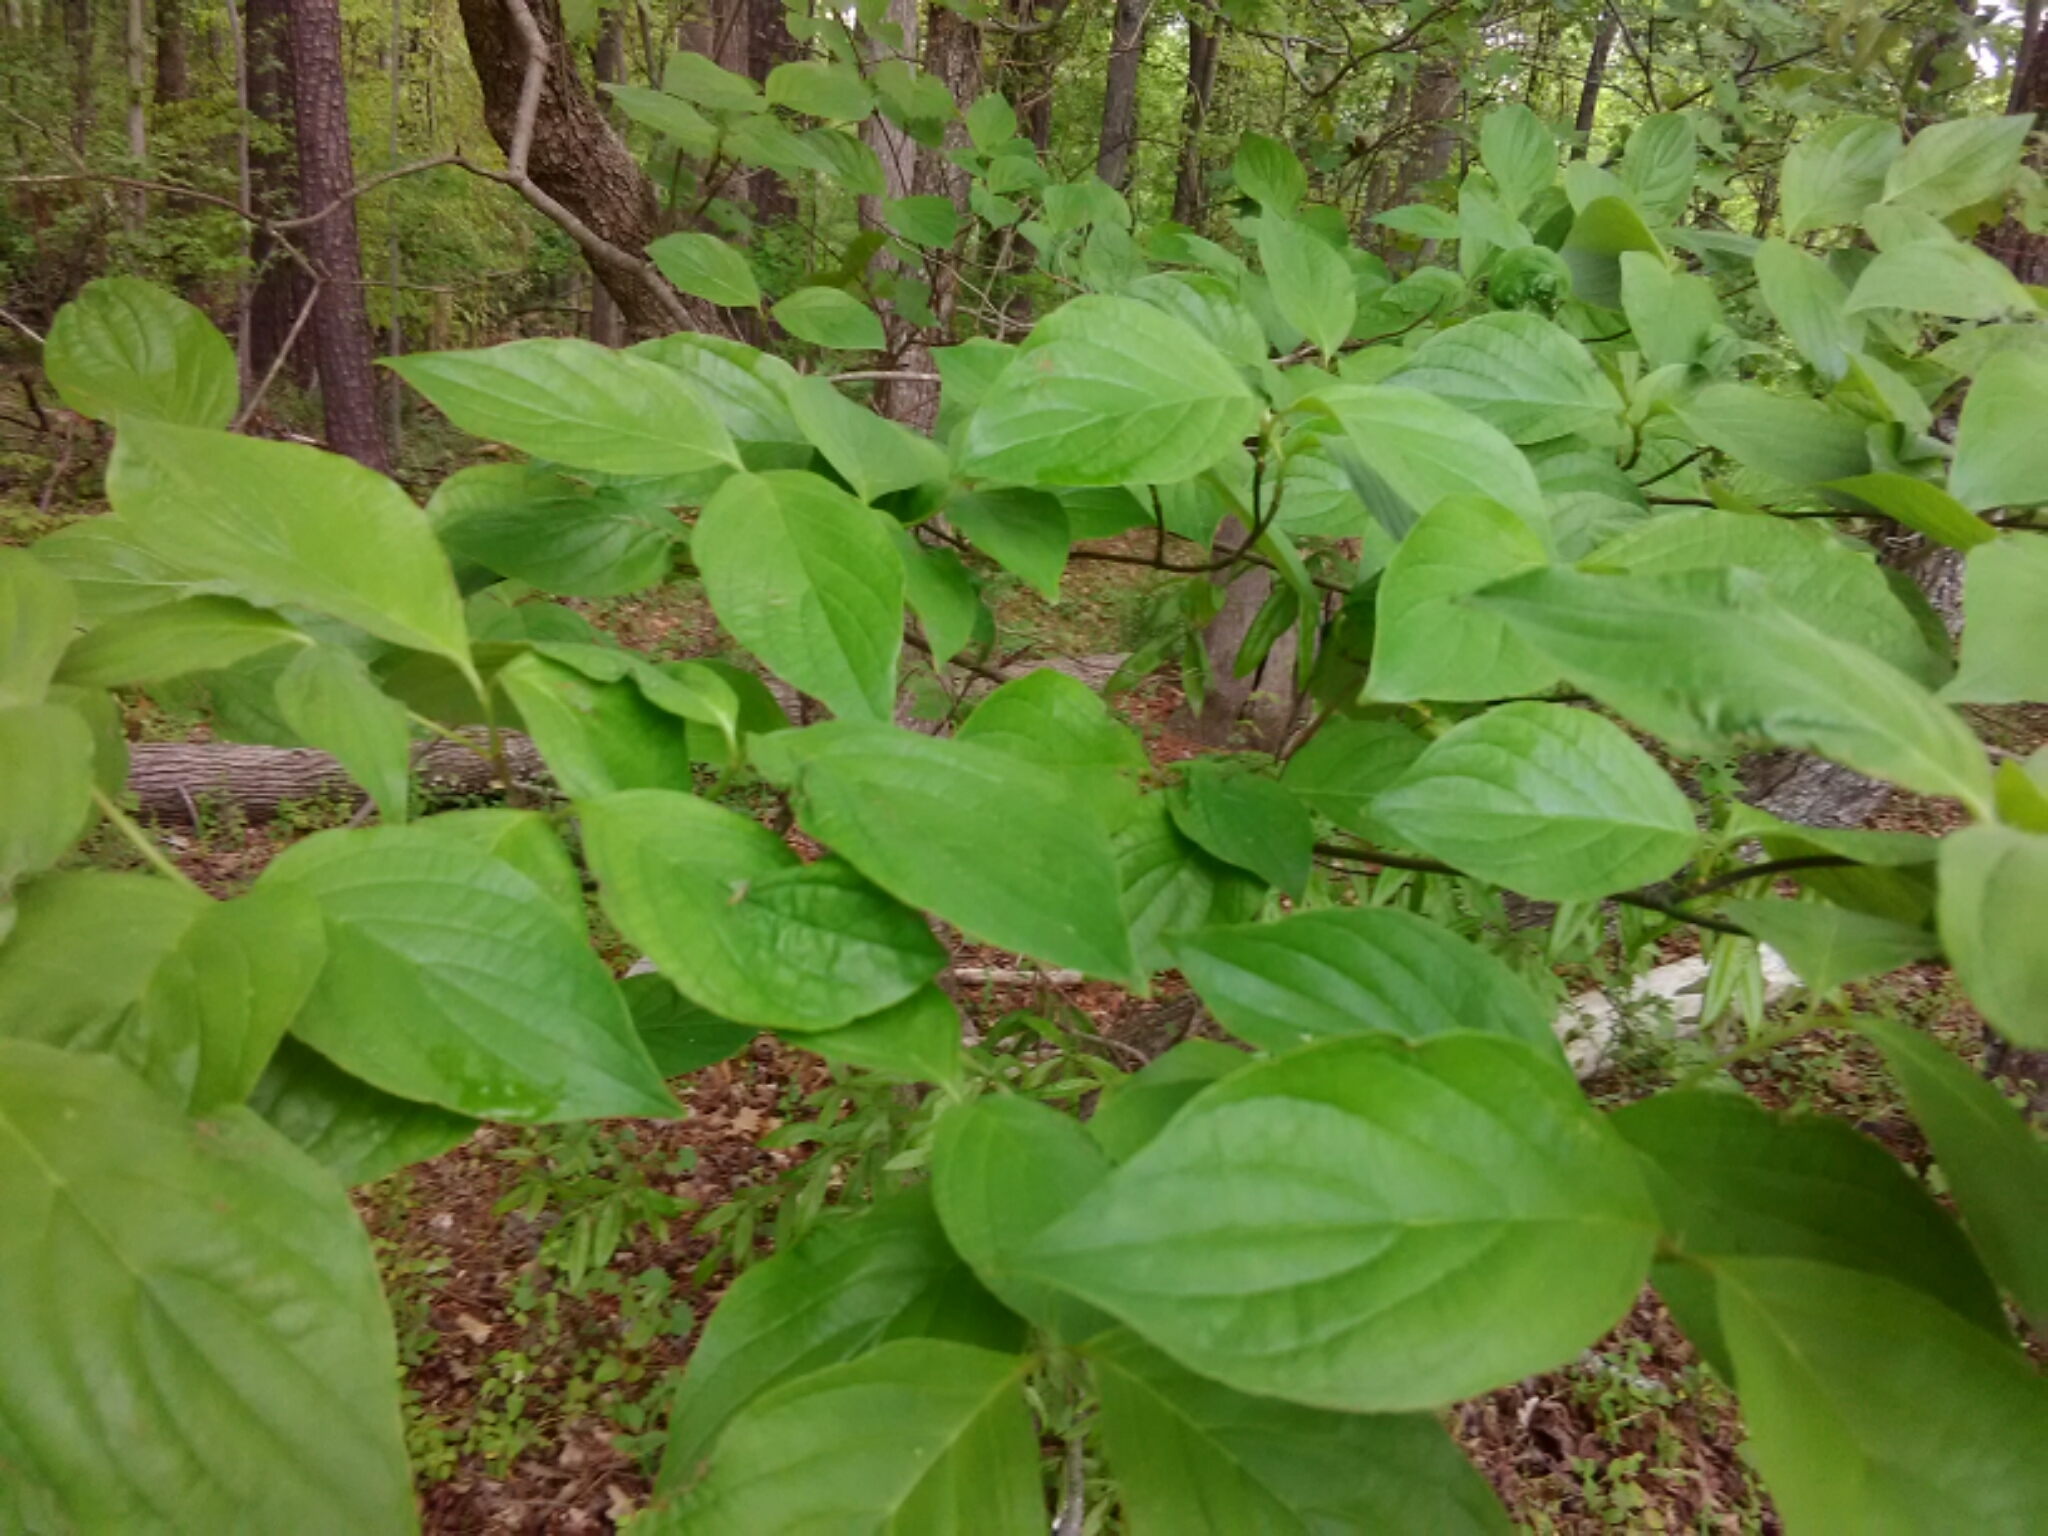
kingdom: Plantae
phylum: Tracheophyta
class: Magnoliopsida
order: Cornales
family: Cornaceae
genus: Cornus
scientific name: Cornus florida
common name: Flowering dogwood
